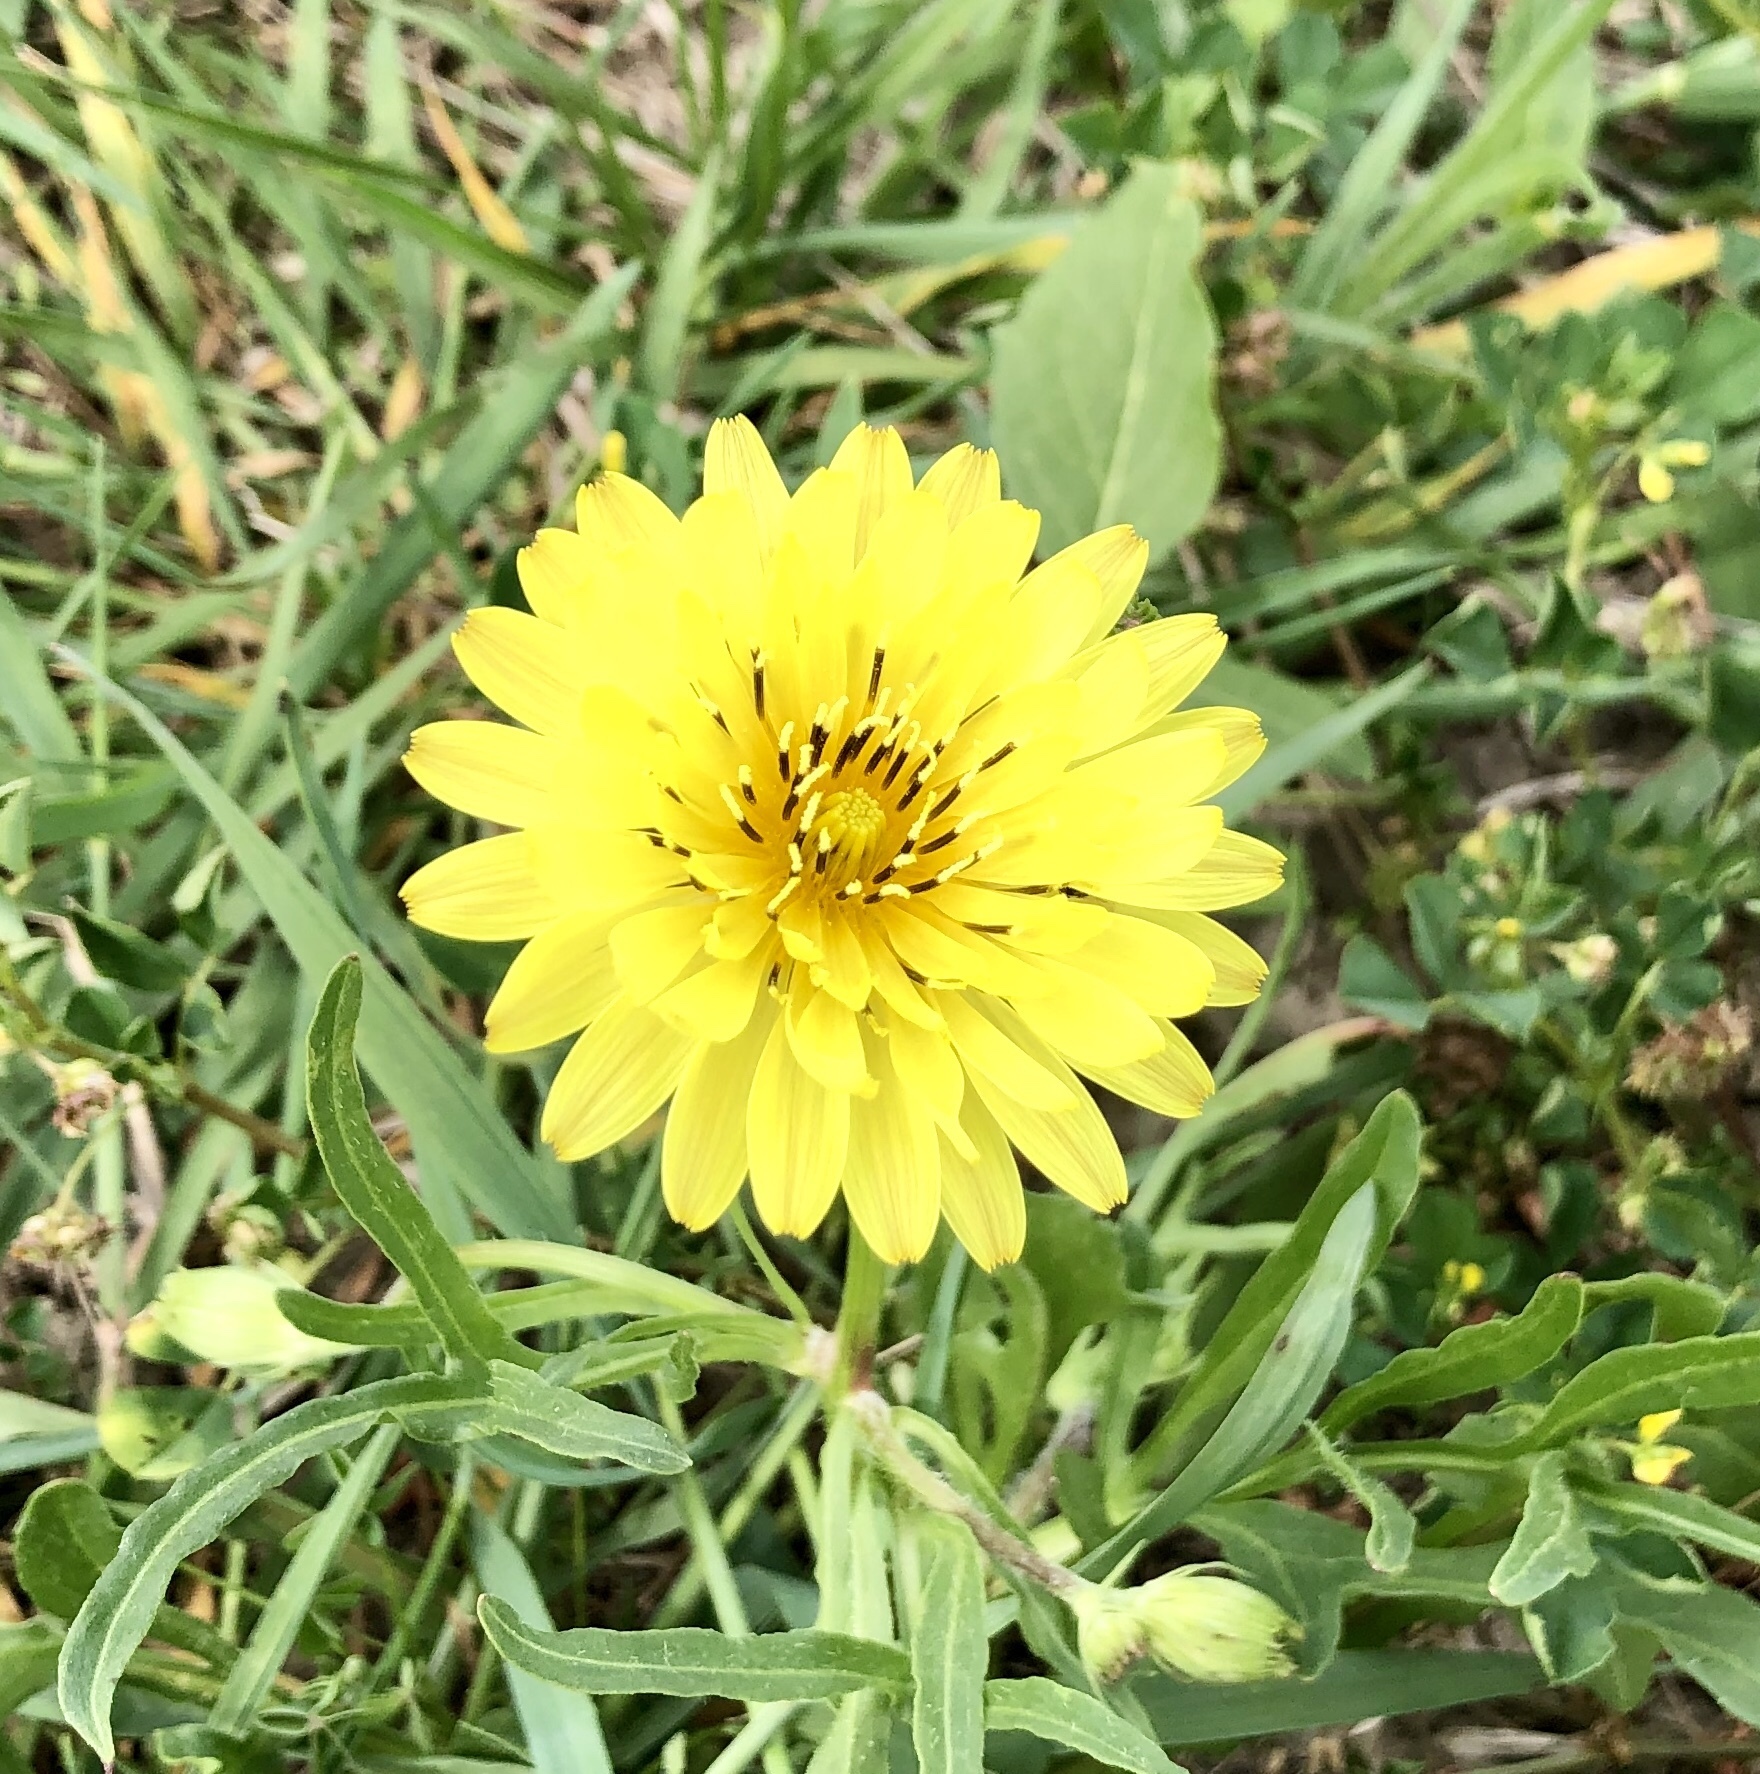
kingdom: Plantae
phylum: Tracheophyta
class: Magnoliopsida
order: Asterales
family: Asteraceae
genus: Pyrrhopappus
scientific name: Pyrrhopappus pauciflorus
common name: Texas false dandelion
